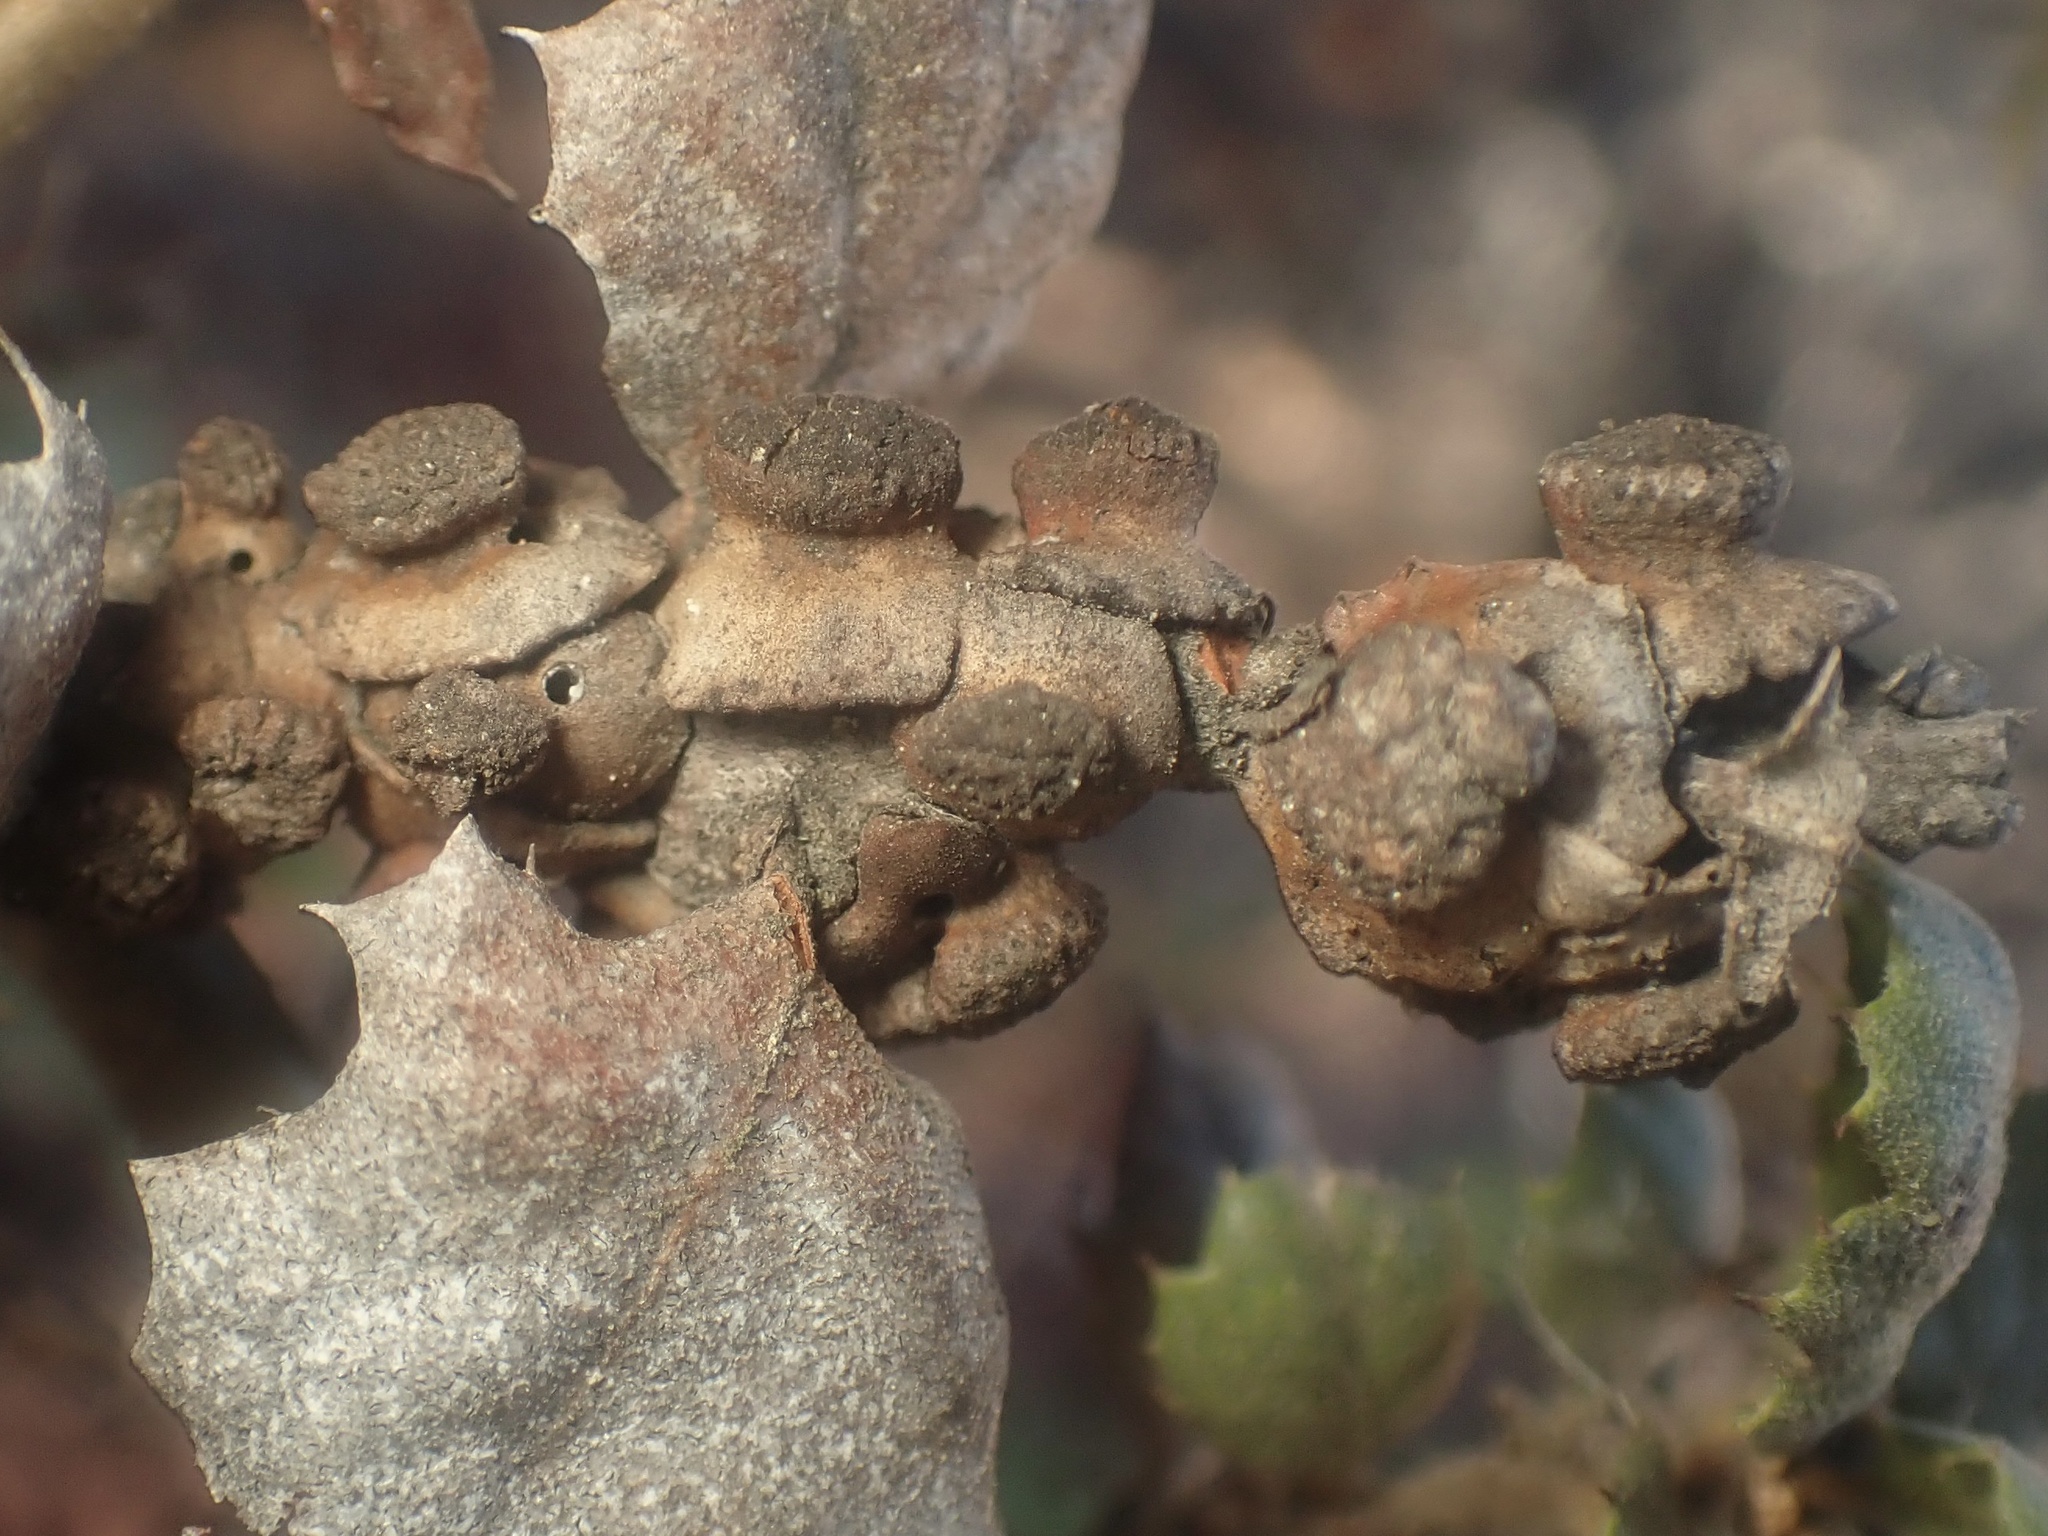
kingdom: Animalia
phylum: Arthropoda
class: Insecta
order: Hymenoptera
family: Cynipidae
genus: Disholcaspis
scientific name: Disholcaspis prehensa
